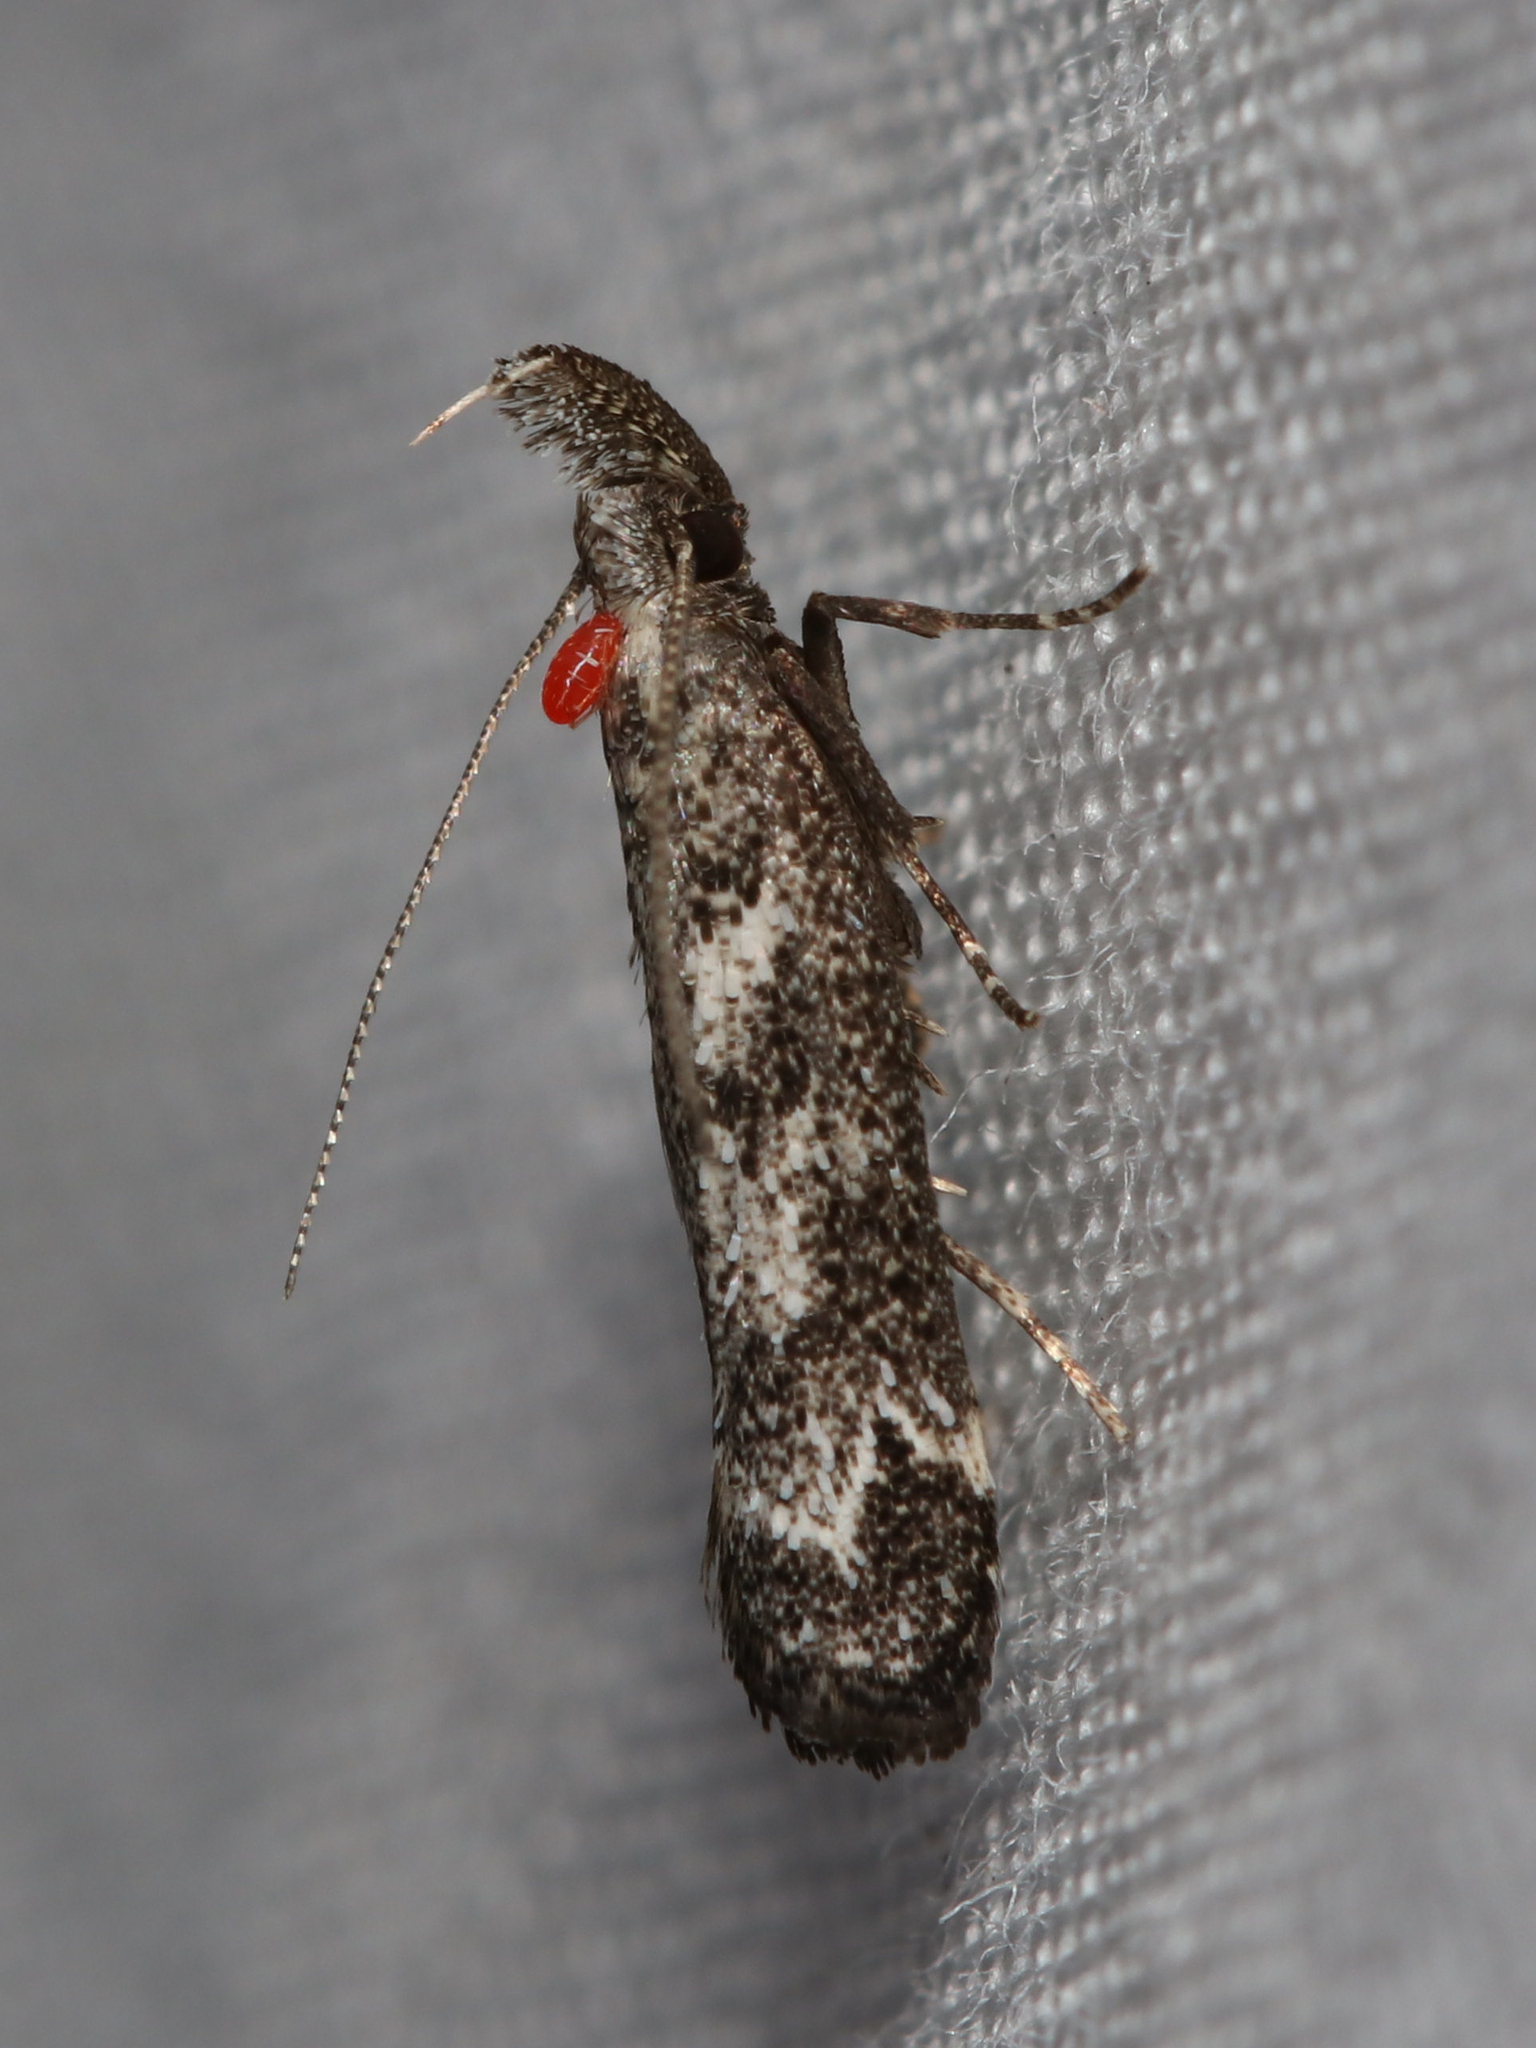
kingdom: Animalia
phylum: Arthropoda
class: Insecta
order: Lepidoptera
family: Gelechiidae
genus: Dichomeris
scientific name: Dichomeris inversella
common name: Inverse dichomeris moth
